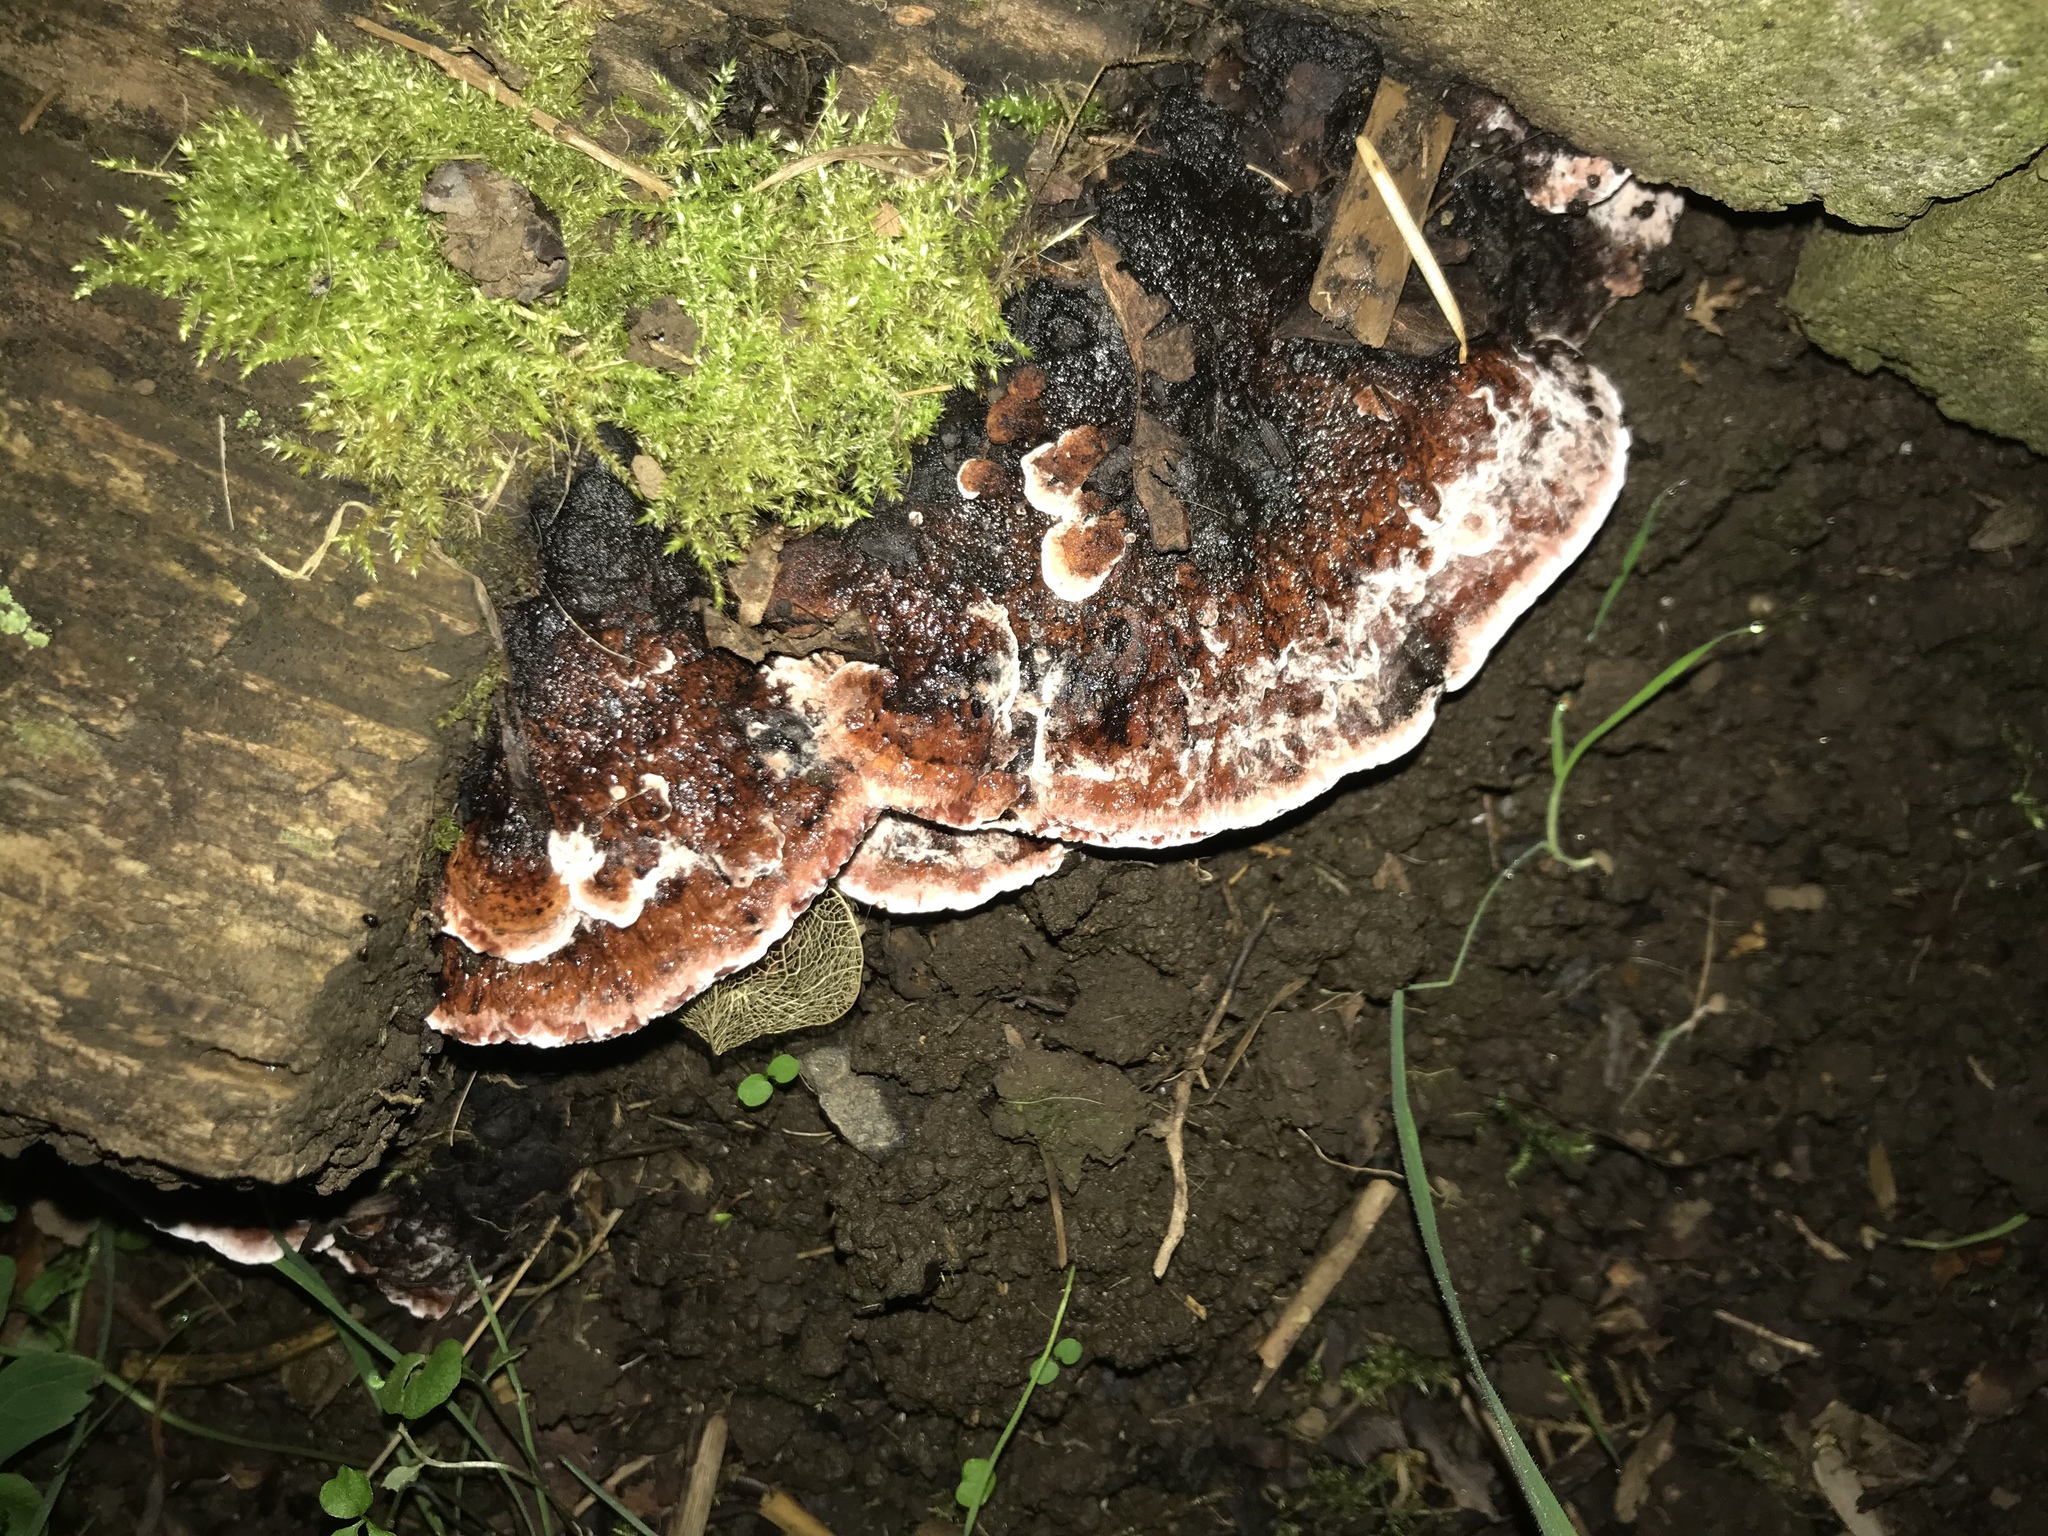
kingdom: Fungi
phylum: Basidiomycota
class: Agaricomycetes
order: Polyporales
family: Fomitopsidaceae
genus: Rhodofomes
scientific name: Rhodofomes cajanderi
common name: Rosy conk
